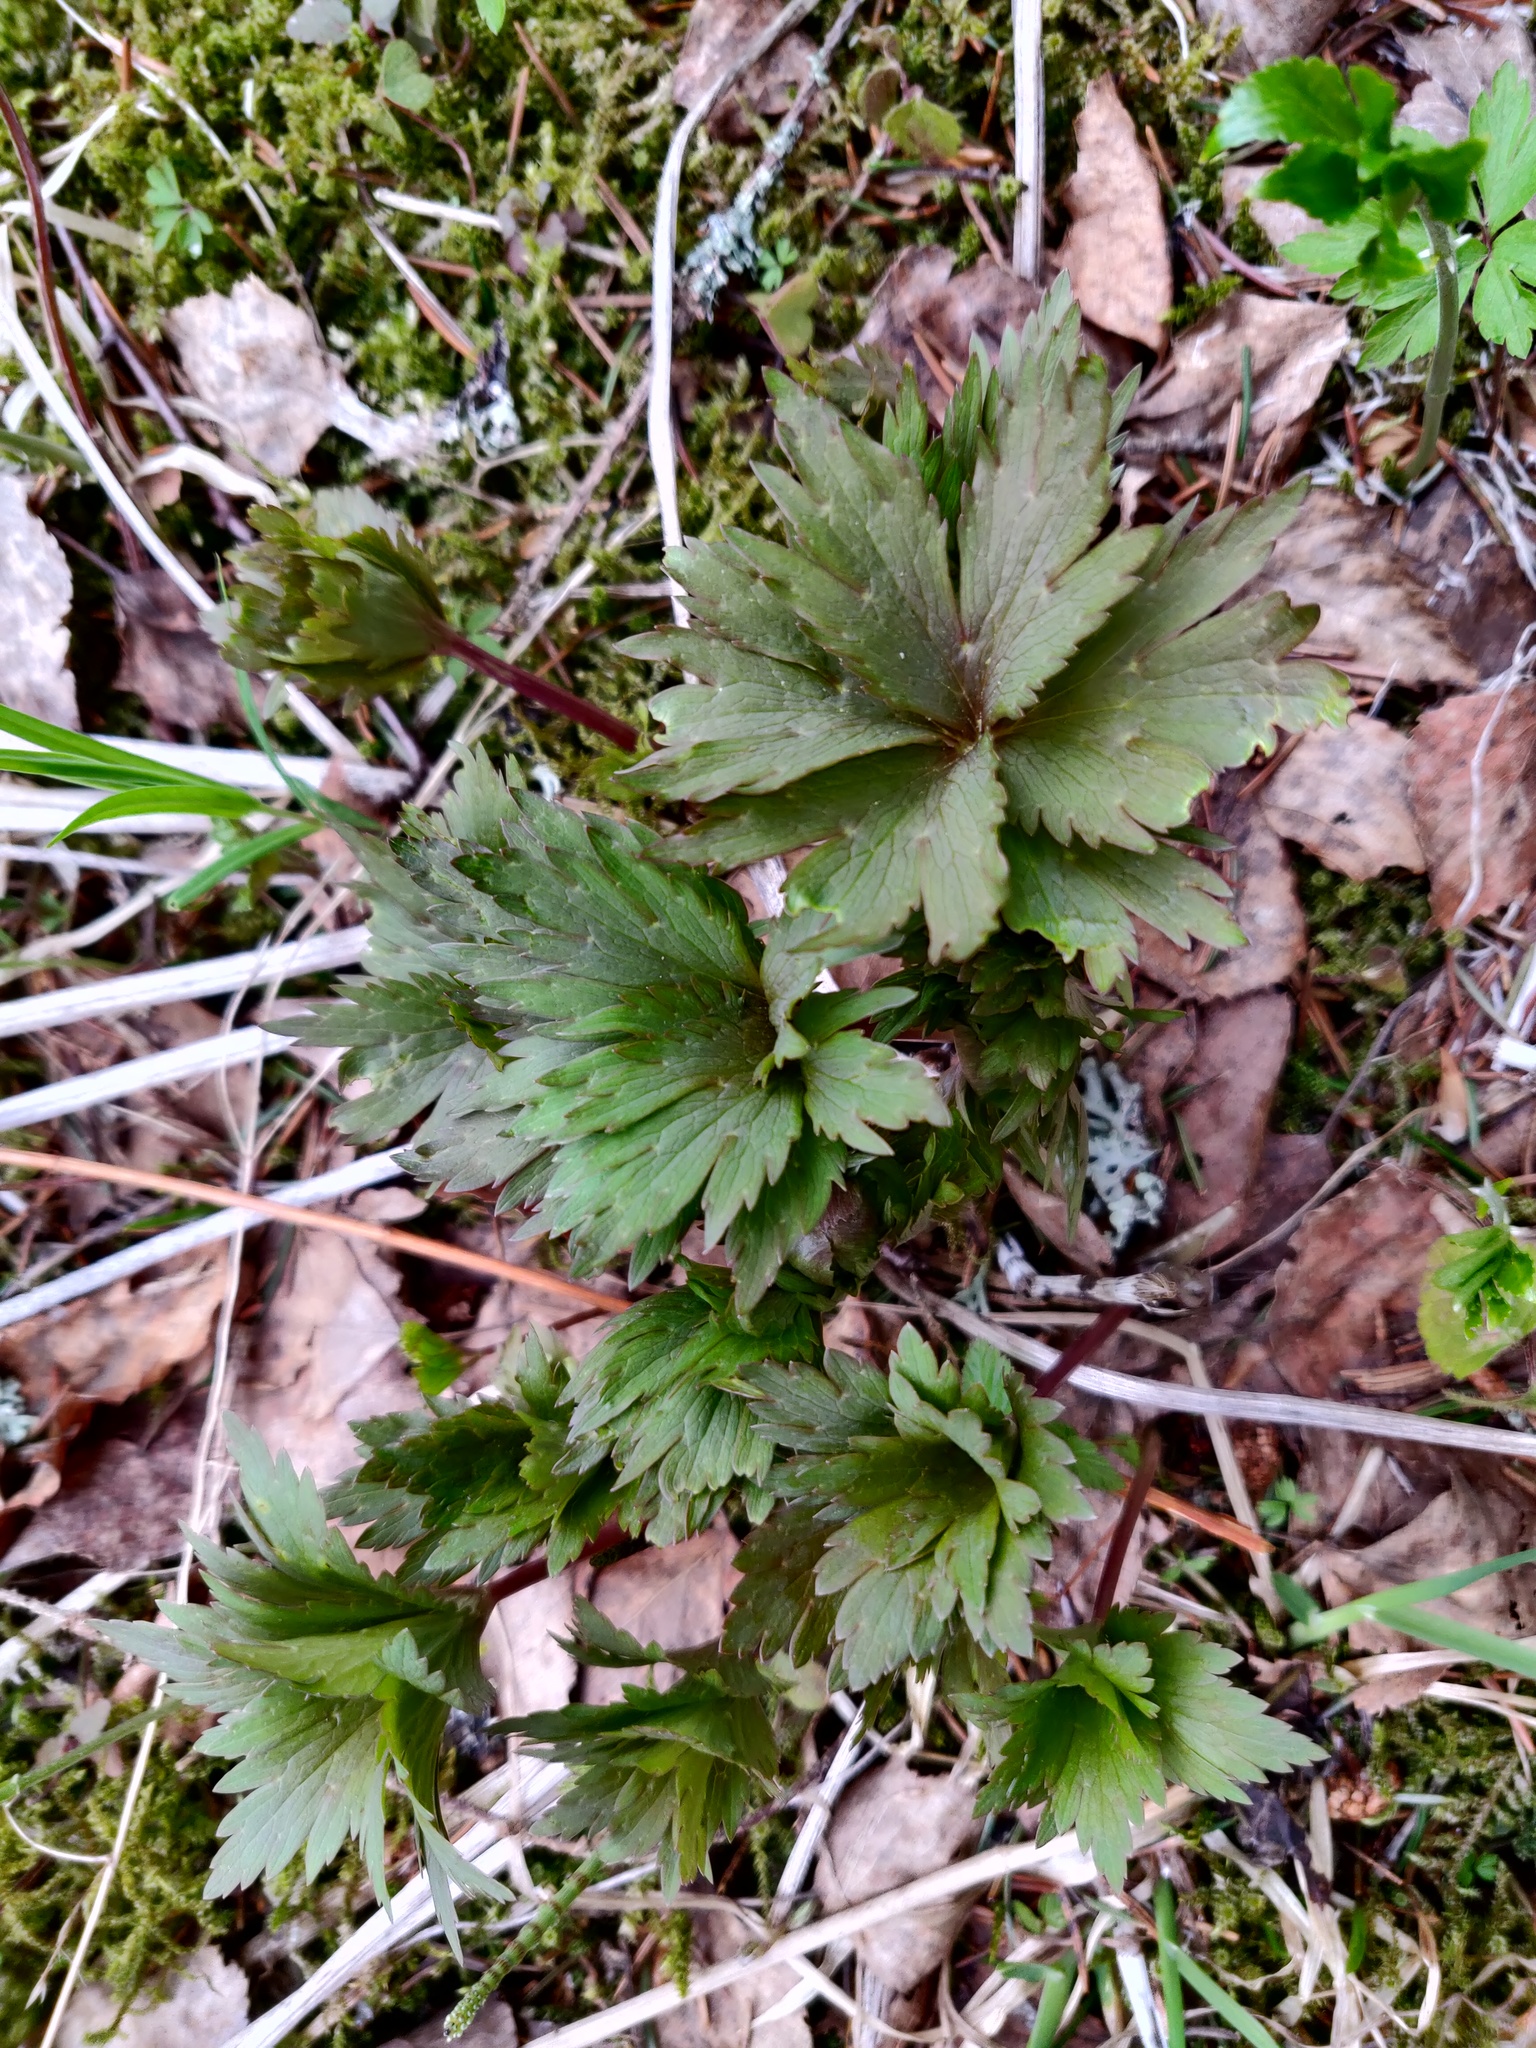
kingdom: Plantae
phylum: Tracheophyta
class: Magnoliopsida
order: Ranunculales
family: Ranunculaceae
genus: Trollius
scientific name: Trollius europaeus
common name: European globeflower
